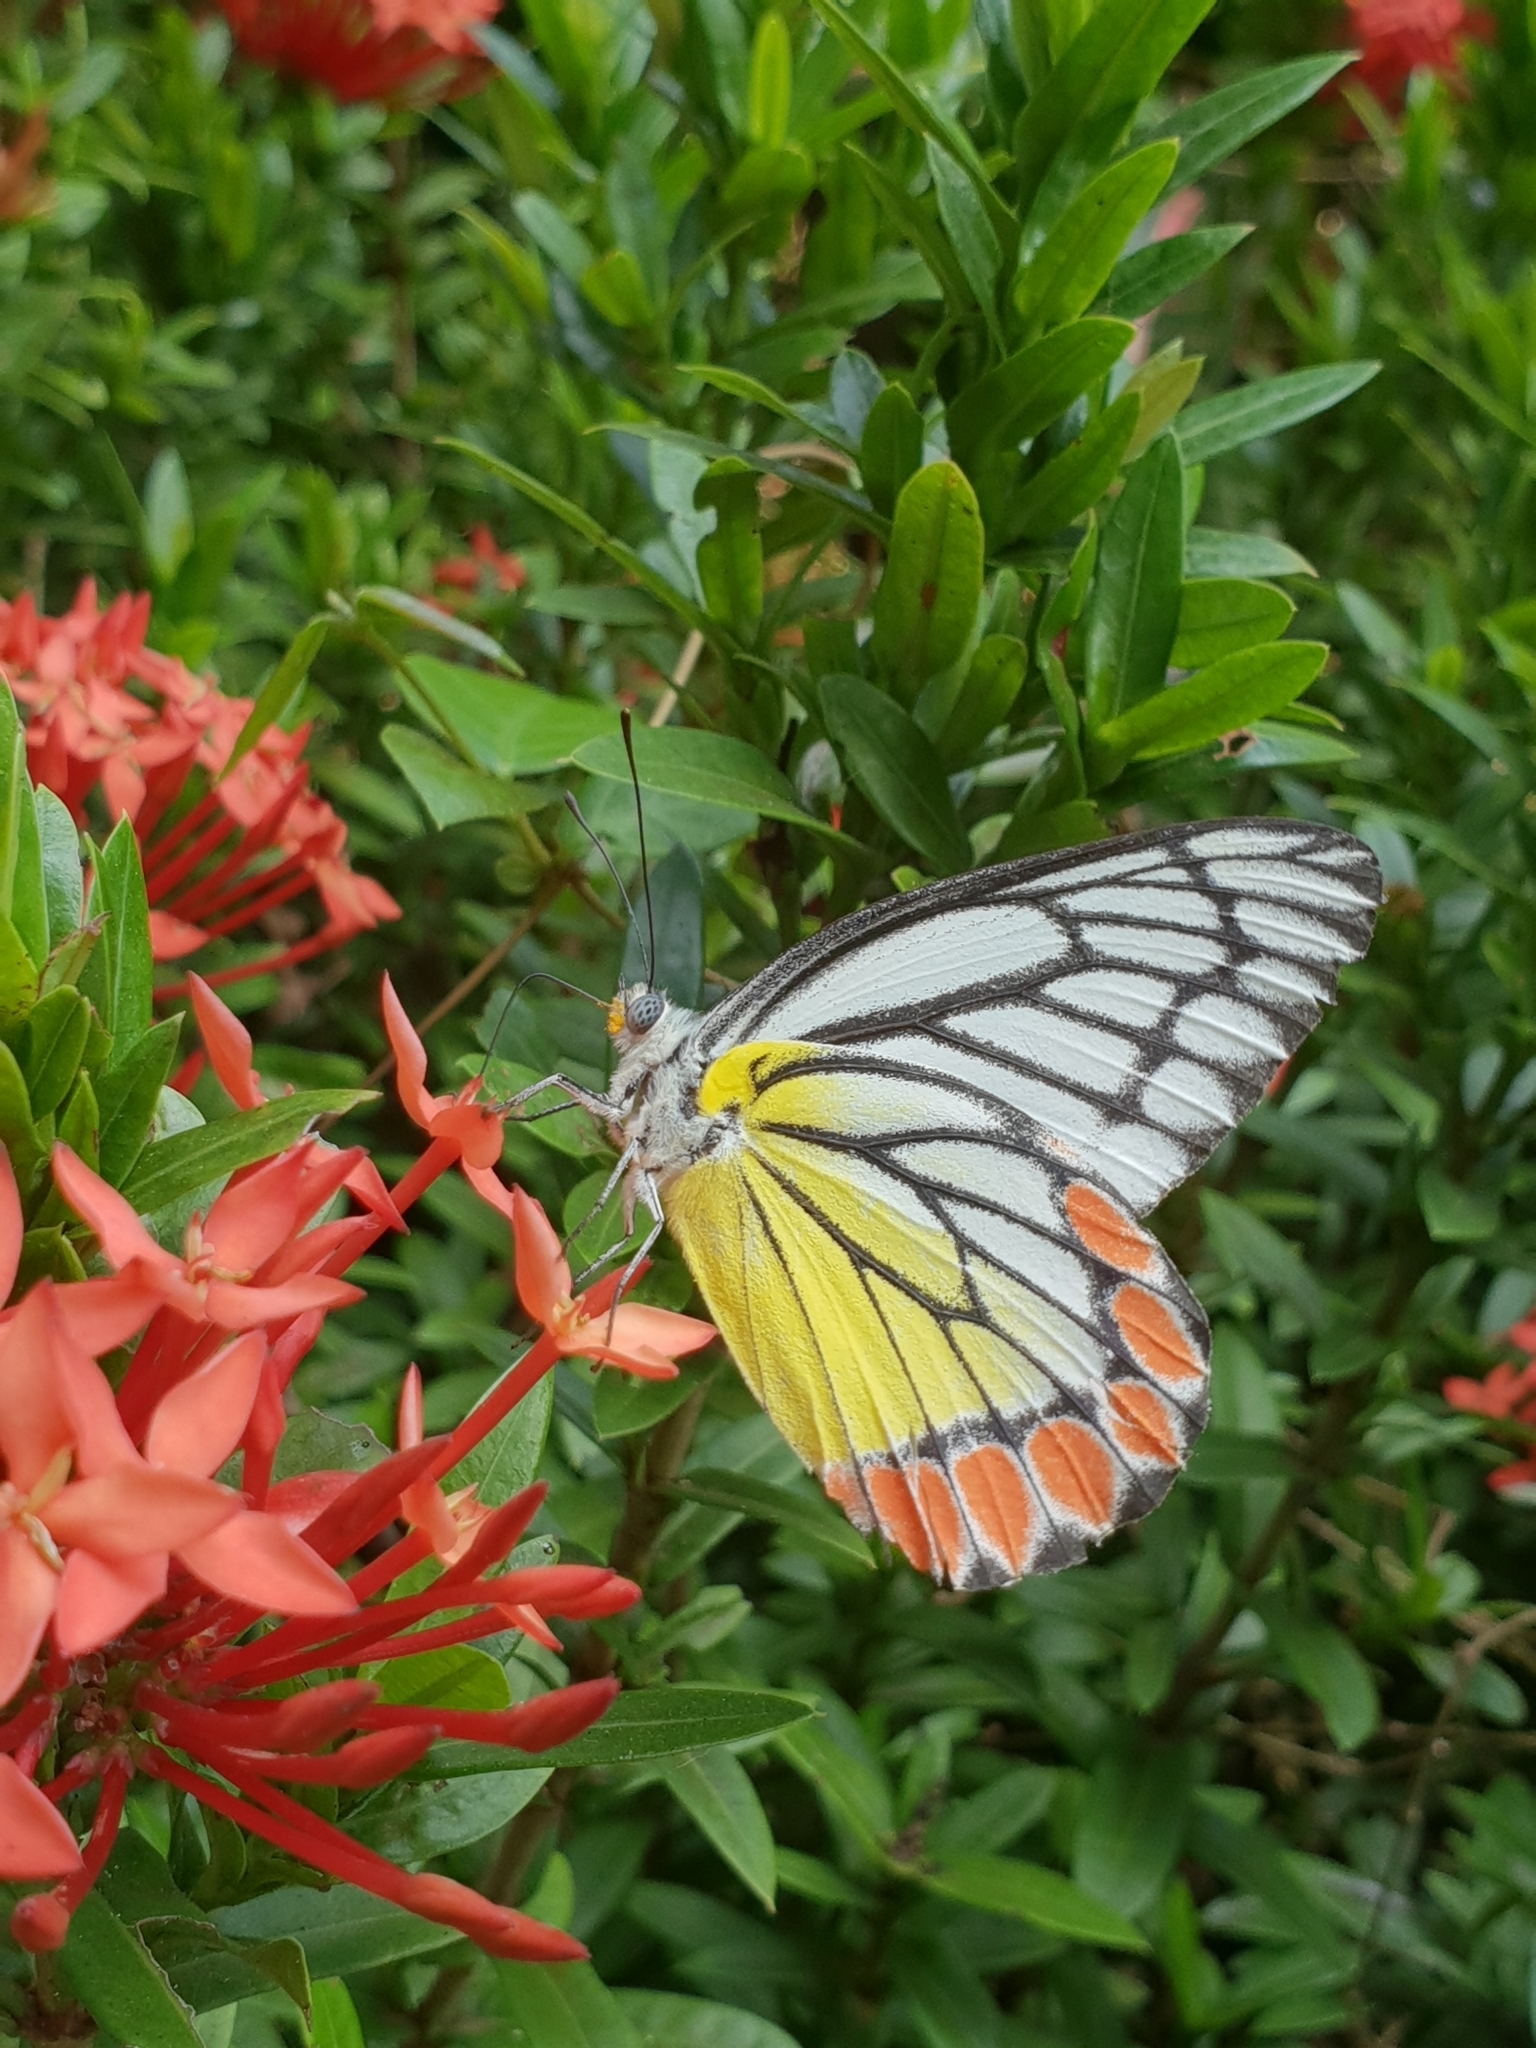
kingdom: Animalia
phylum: Arthropoda
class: Insecta
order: Lepidoptera
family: Pieridae
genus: Delias
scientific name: Delias eucharis
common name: Common jezebel
